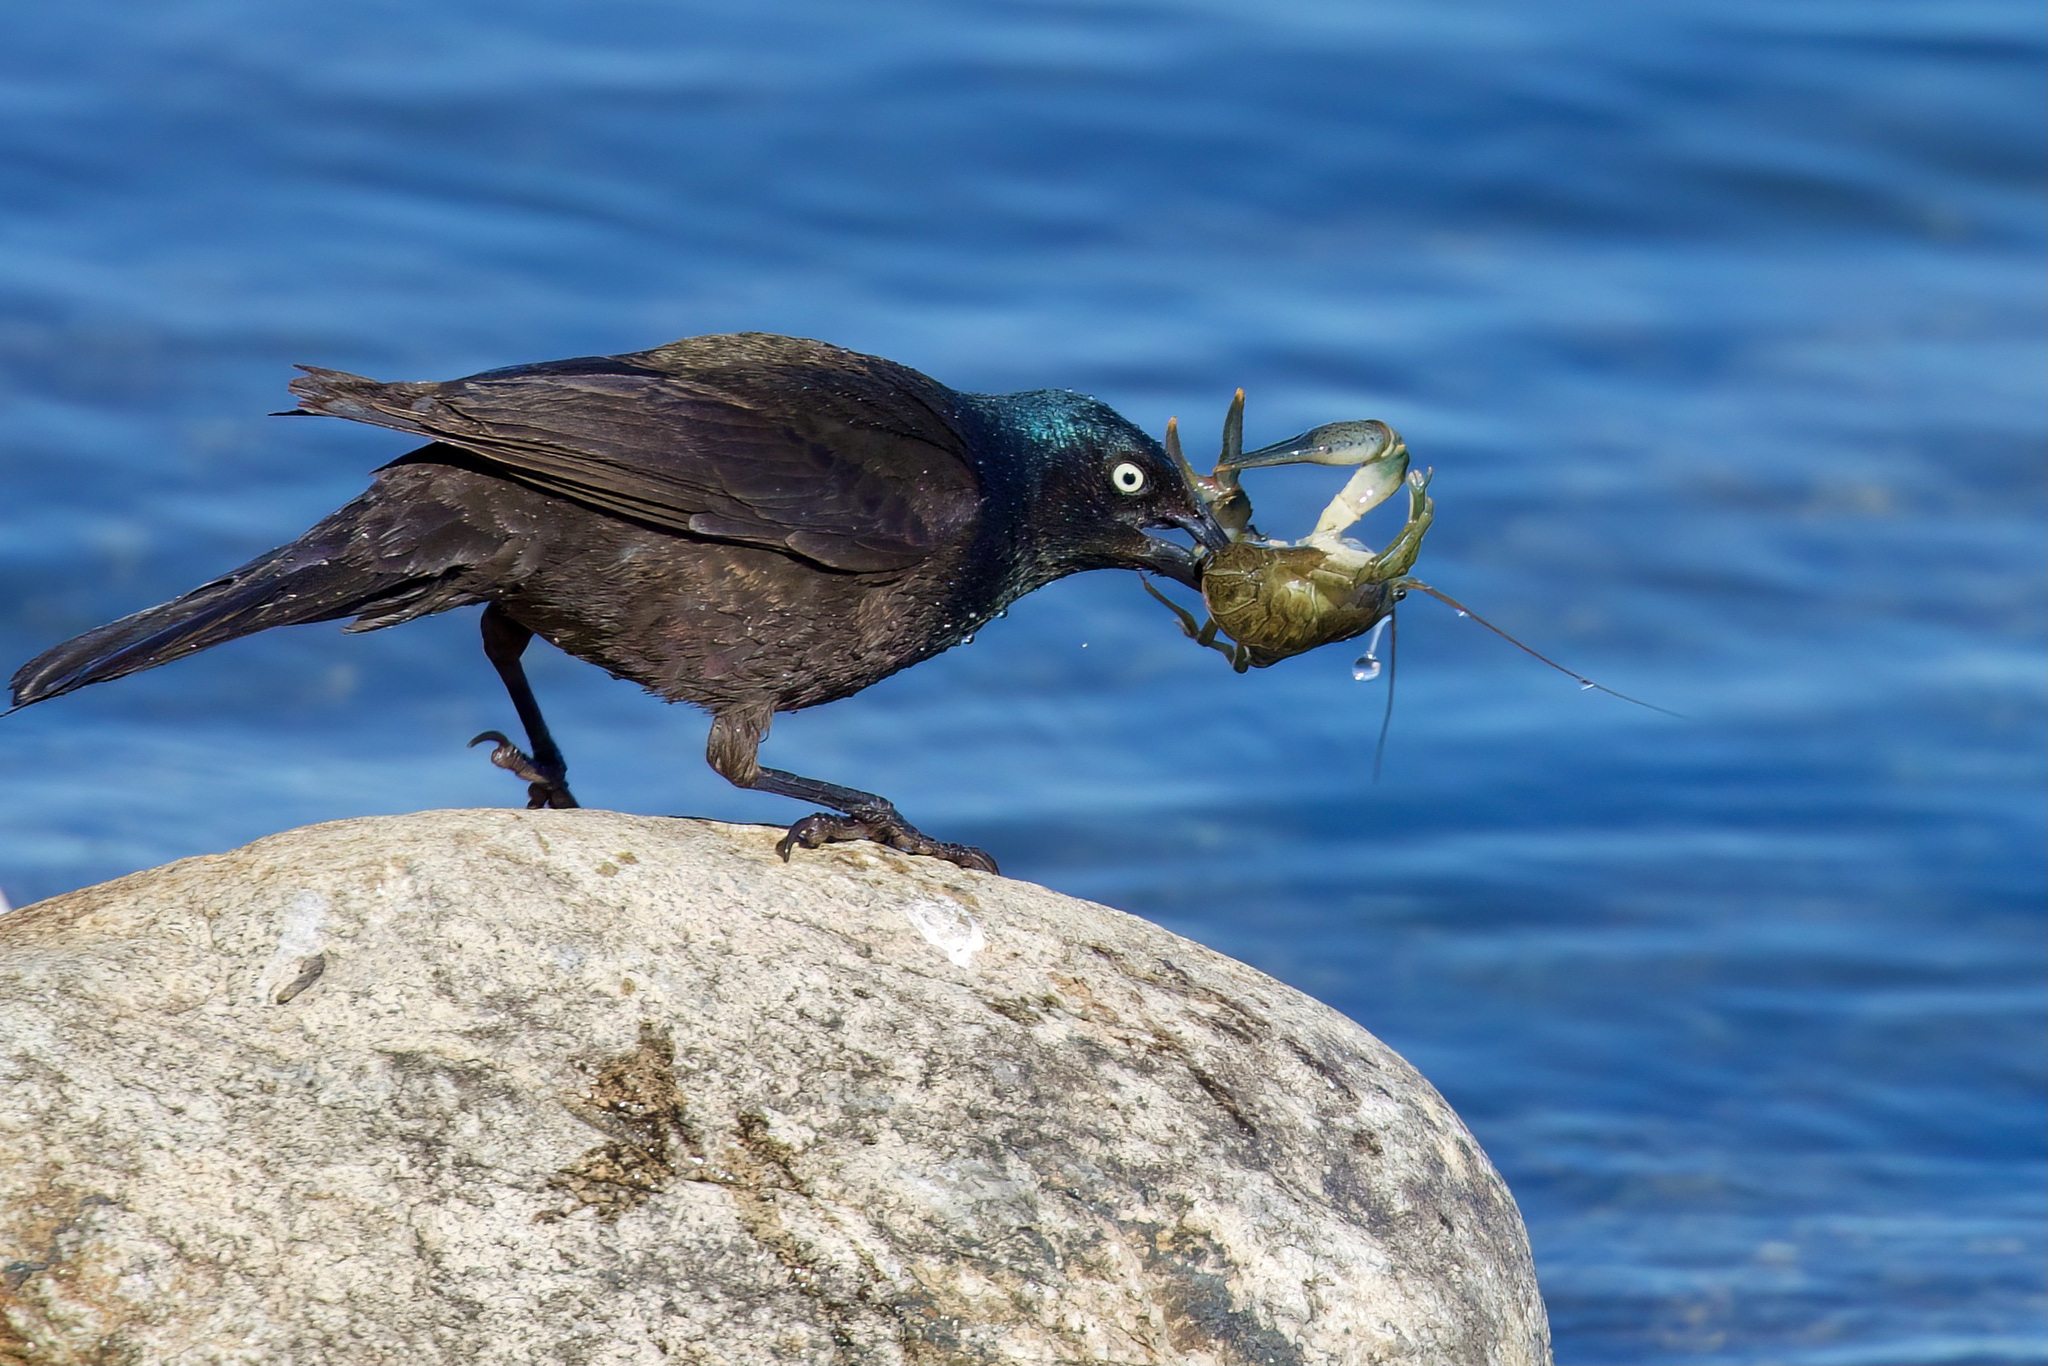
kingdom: Animalia
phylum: Arthropoda
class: Malacostraca
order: Decapoda
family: Cambaridae
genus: Faxonius
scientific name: Faxonius virilis
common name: Virile crayfish
